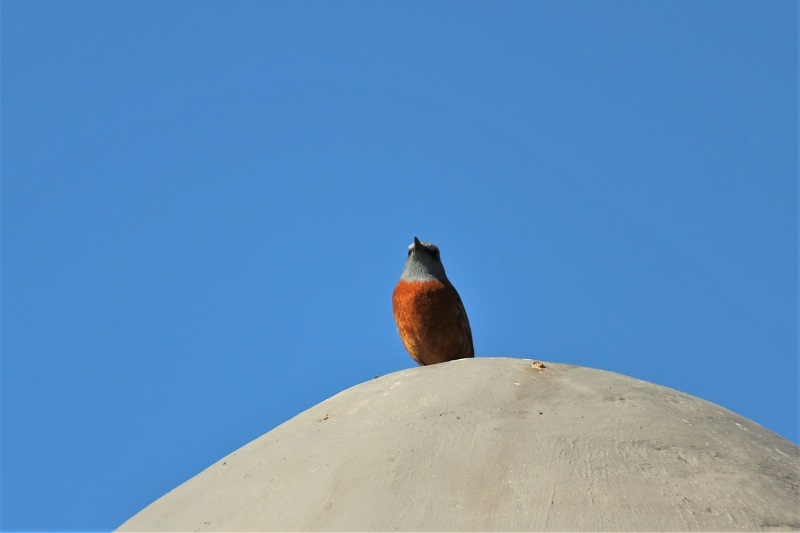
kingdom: Animalia
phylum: Chordata
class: Aves
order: Passeriformes
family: Muscicapidae
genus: Monticola
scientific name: Monticola rupestris
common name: Cape rock thrush
